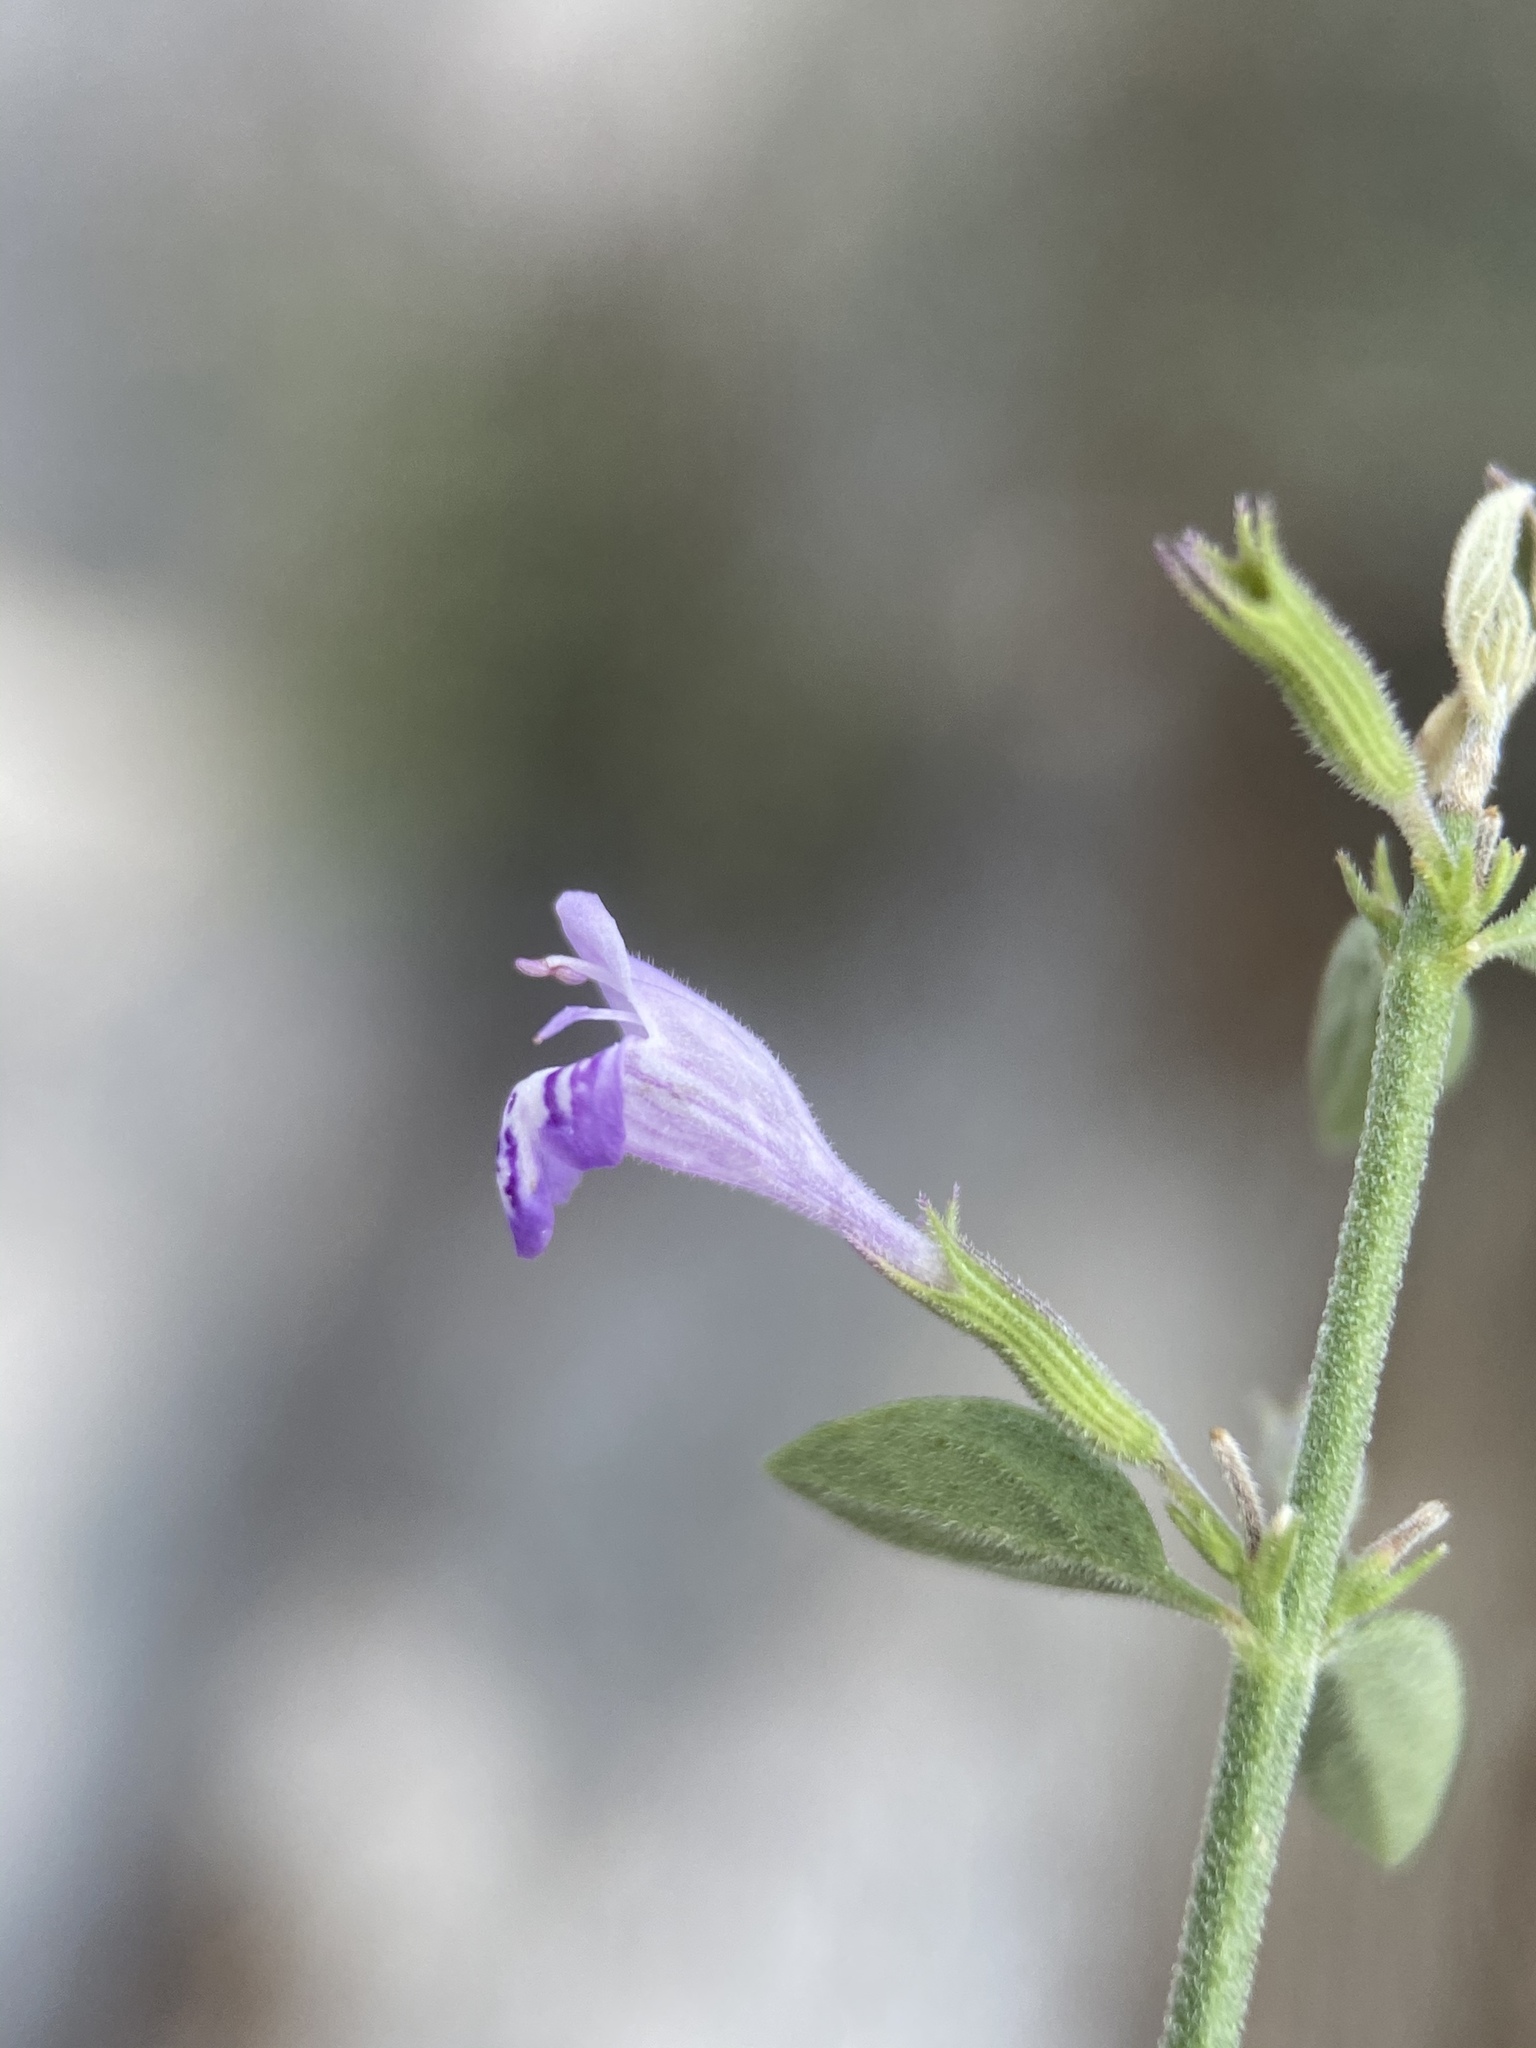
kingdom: Plantae
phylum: Tracheophyta
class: Magnoliopsida
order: Lamiales
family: Lamiaceae
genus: Hedeoma
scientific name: Hedeoma nana
